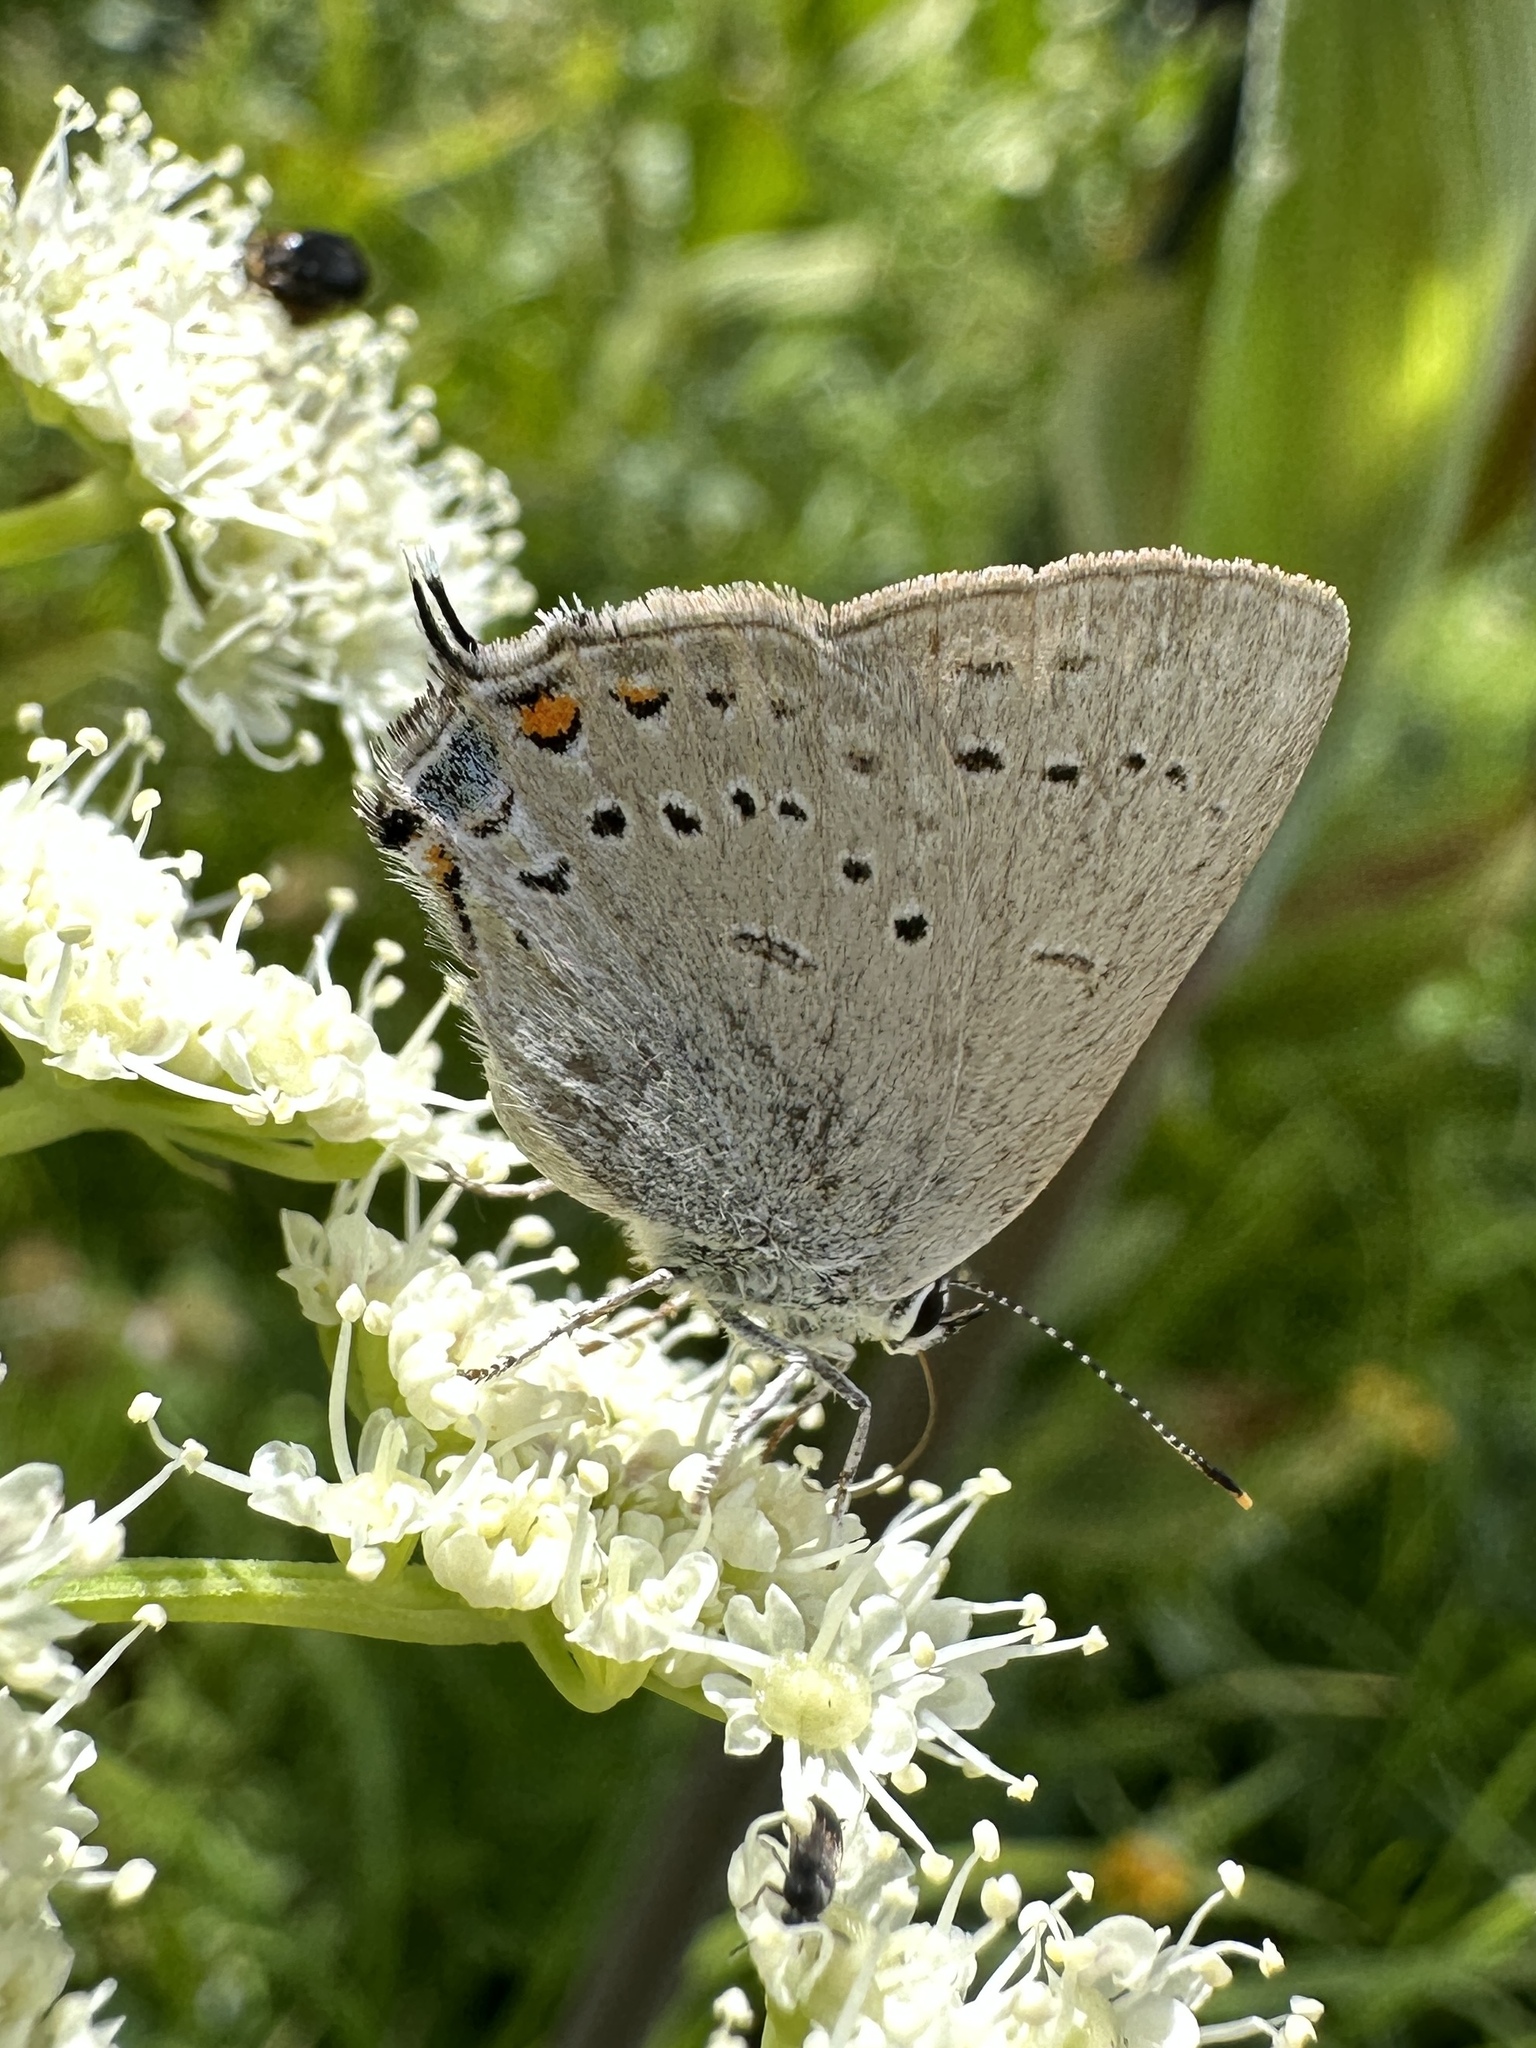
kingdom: Animalia
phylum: Arthropoda
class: Insecta
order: Lepidoptera
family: Lycaenidae
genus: Strymon
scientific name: Strymon sylvinus
